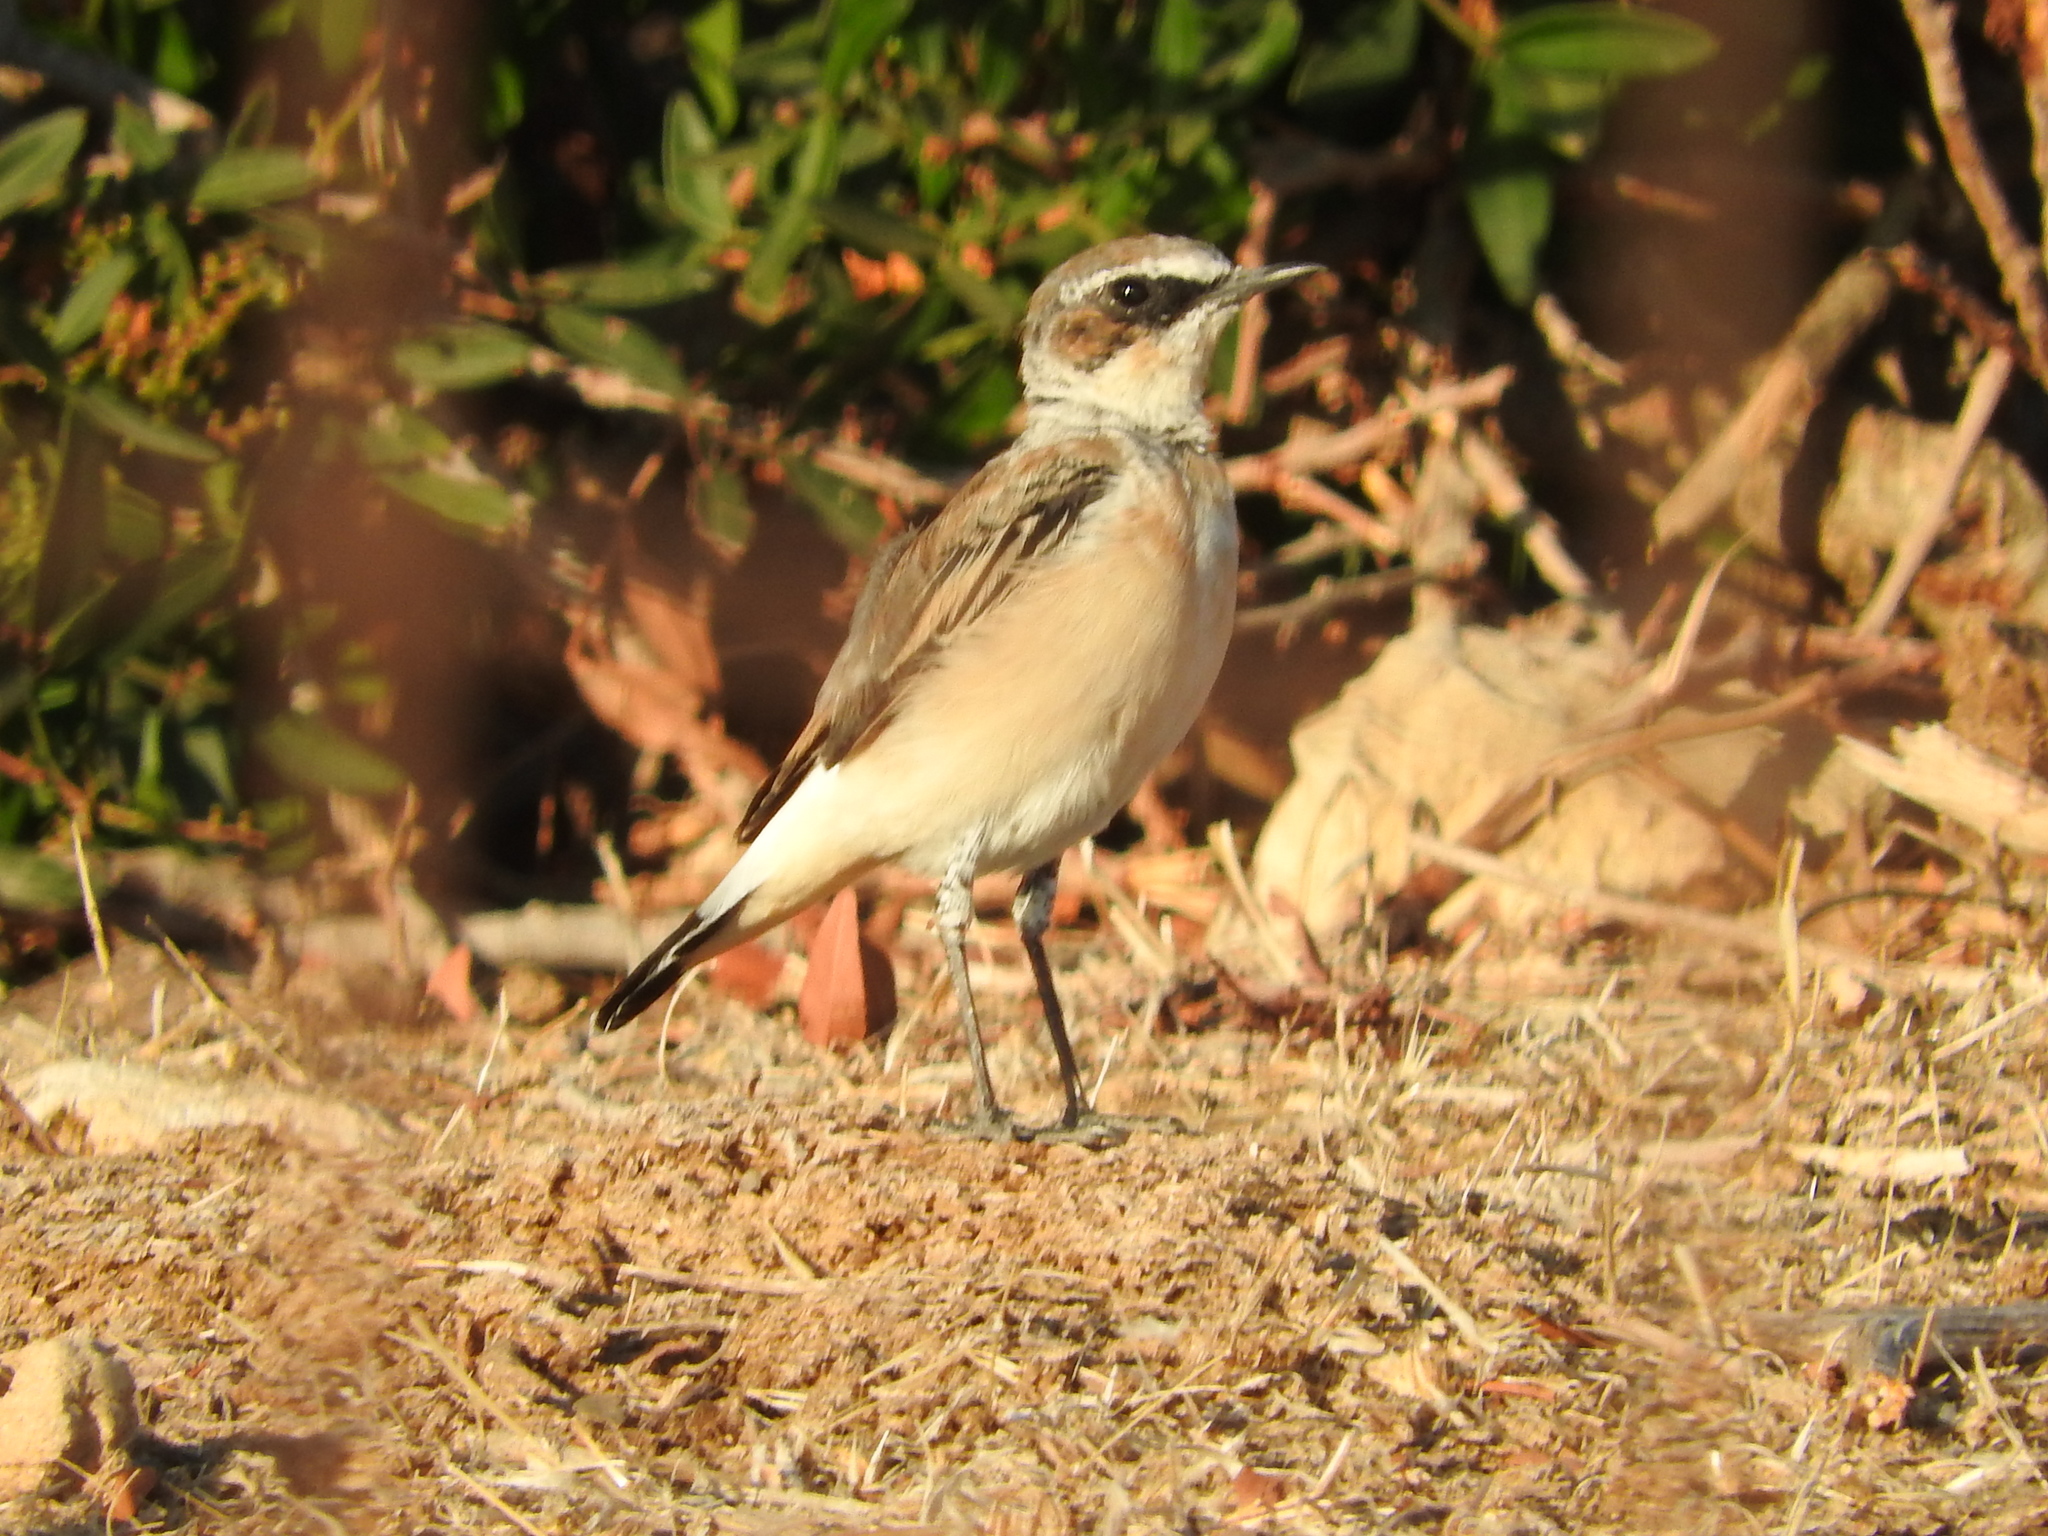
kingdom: Animalia
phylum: Chordata
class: Aves
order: Passeriformes
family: Muscicapidae
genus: Oenanthe
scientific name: Oenanthe hispanica
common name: Black-eared wheatear
